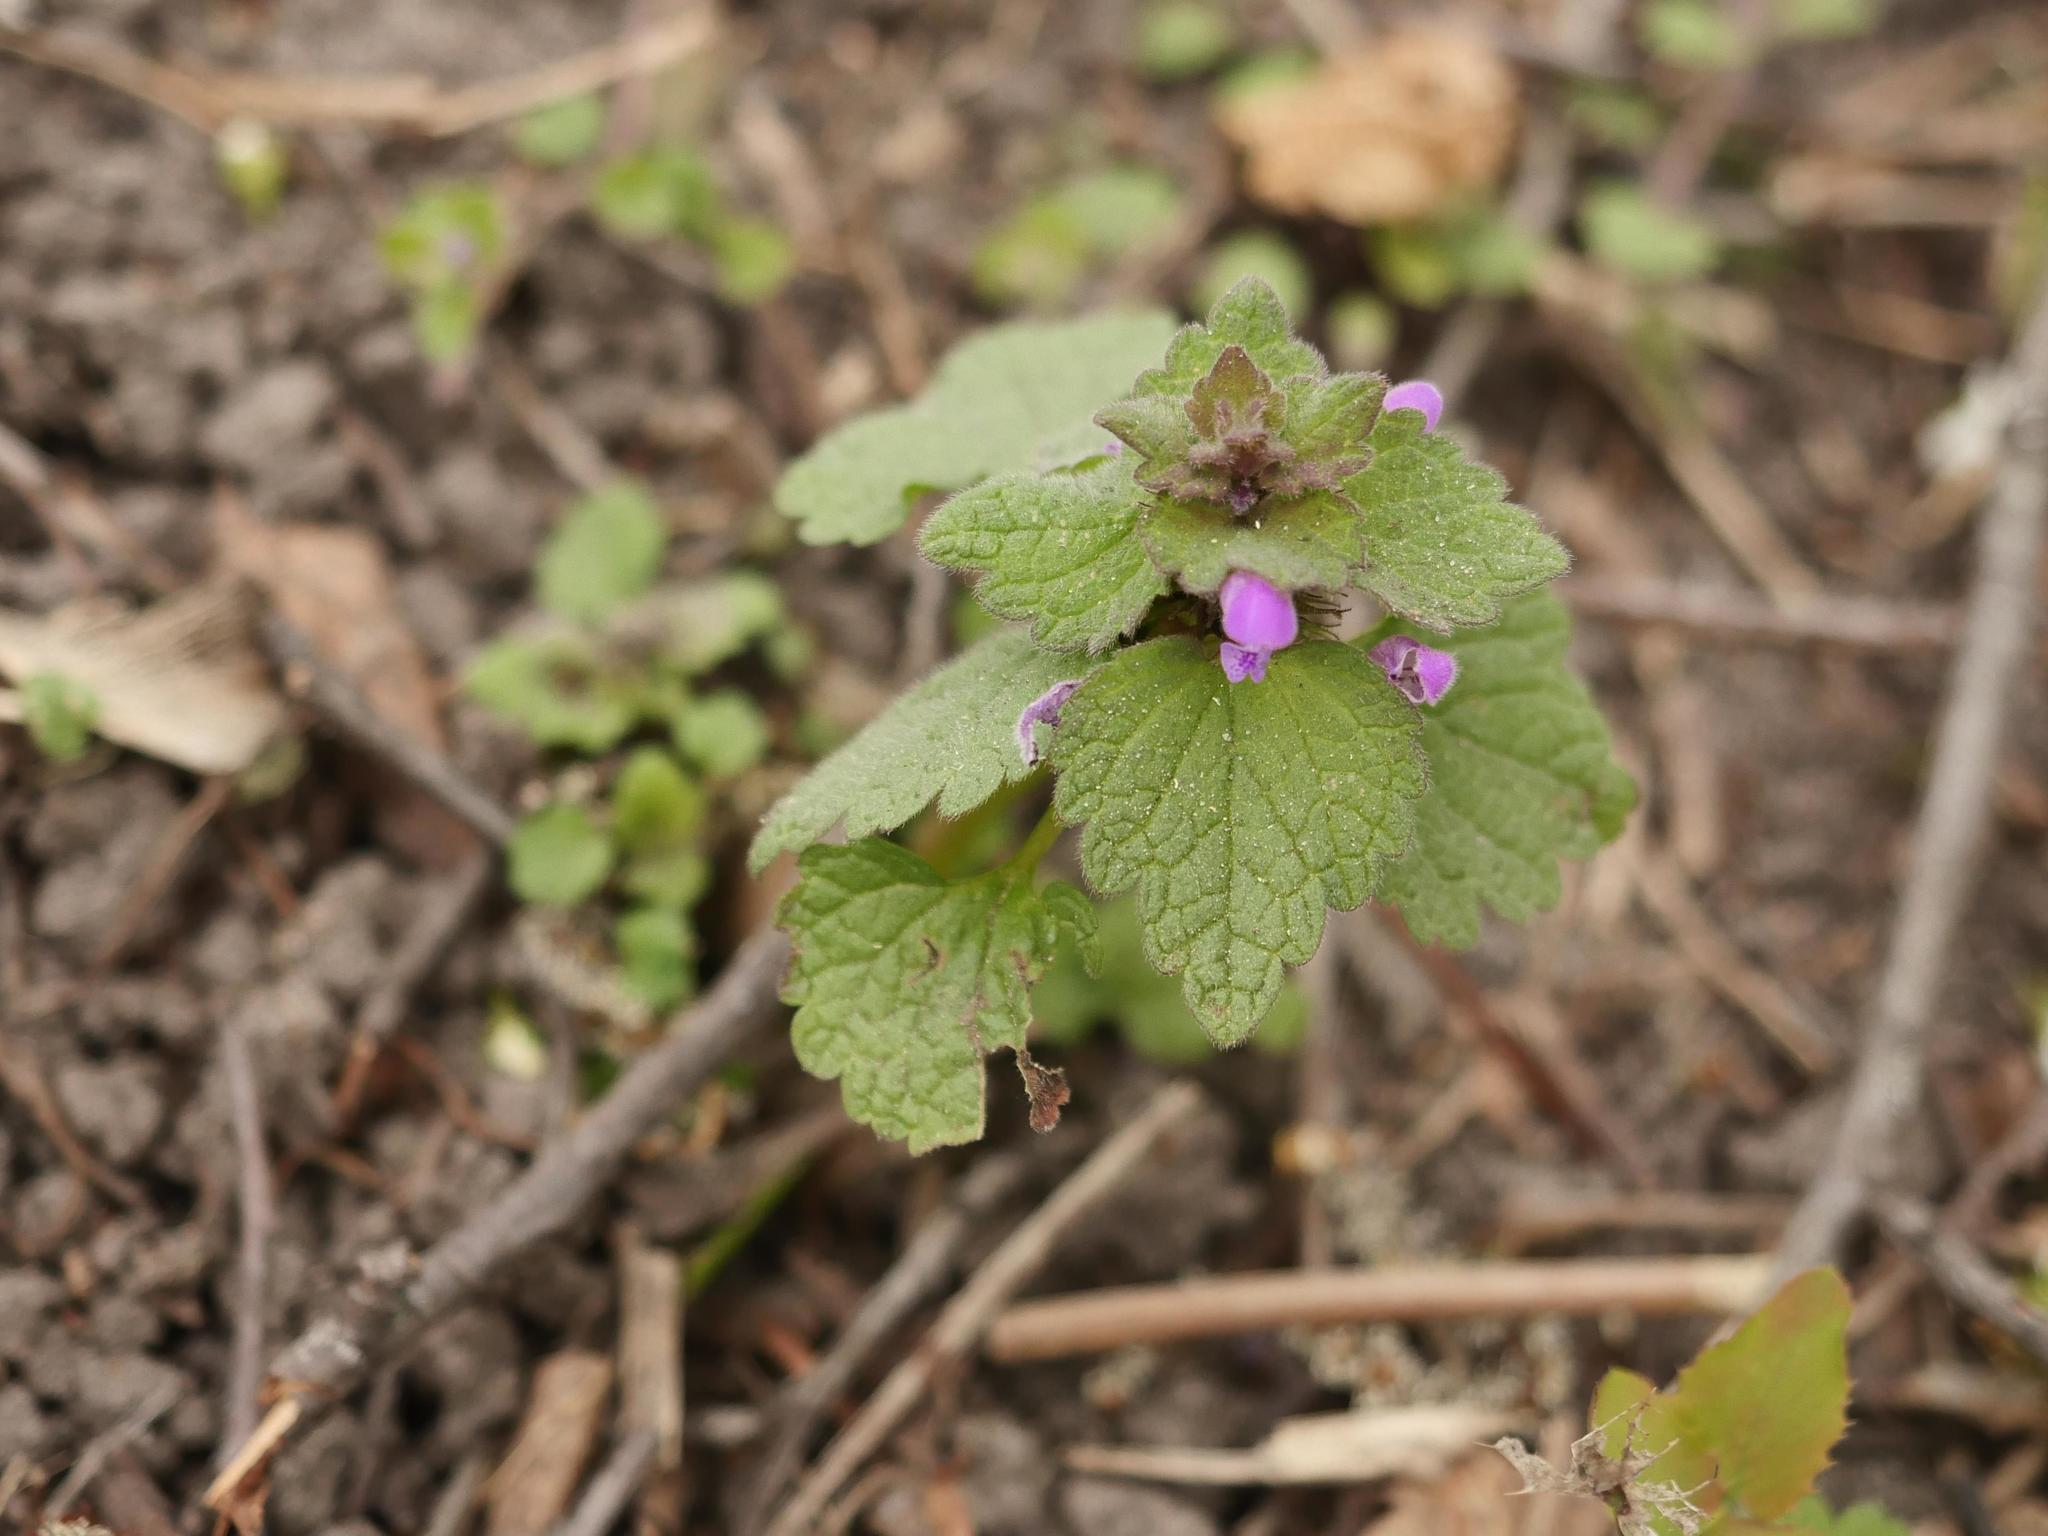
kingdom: Plantae
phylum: Tracheophyta
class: Magnoliopsida
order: Lamiales
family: Lamiaceae
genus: Lamium
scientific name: Lamium purpureum
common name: Red dead-nettle
